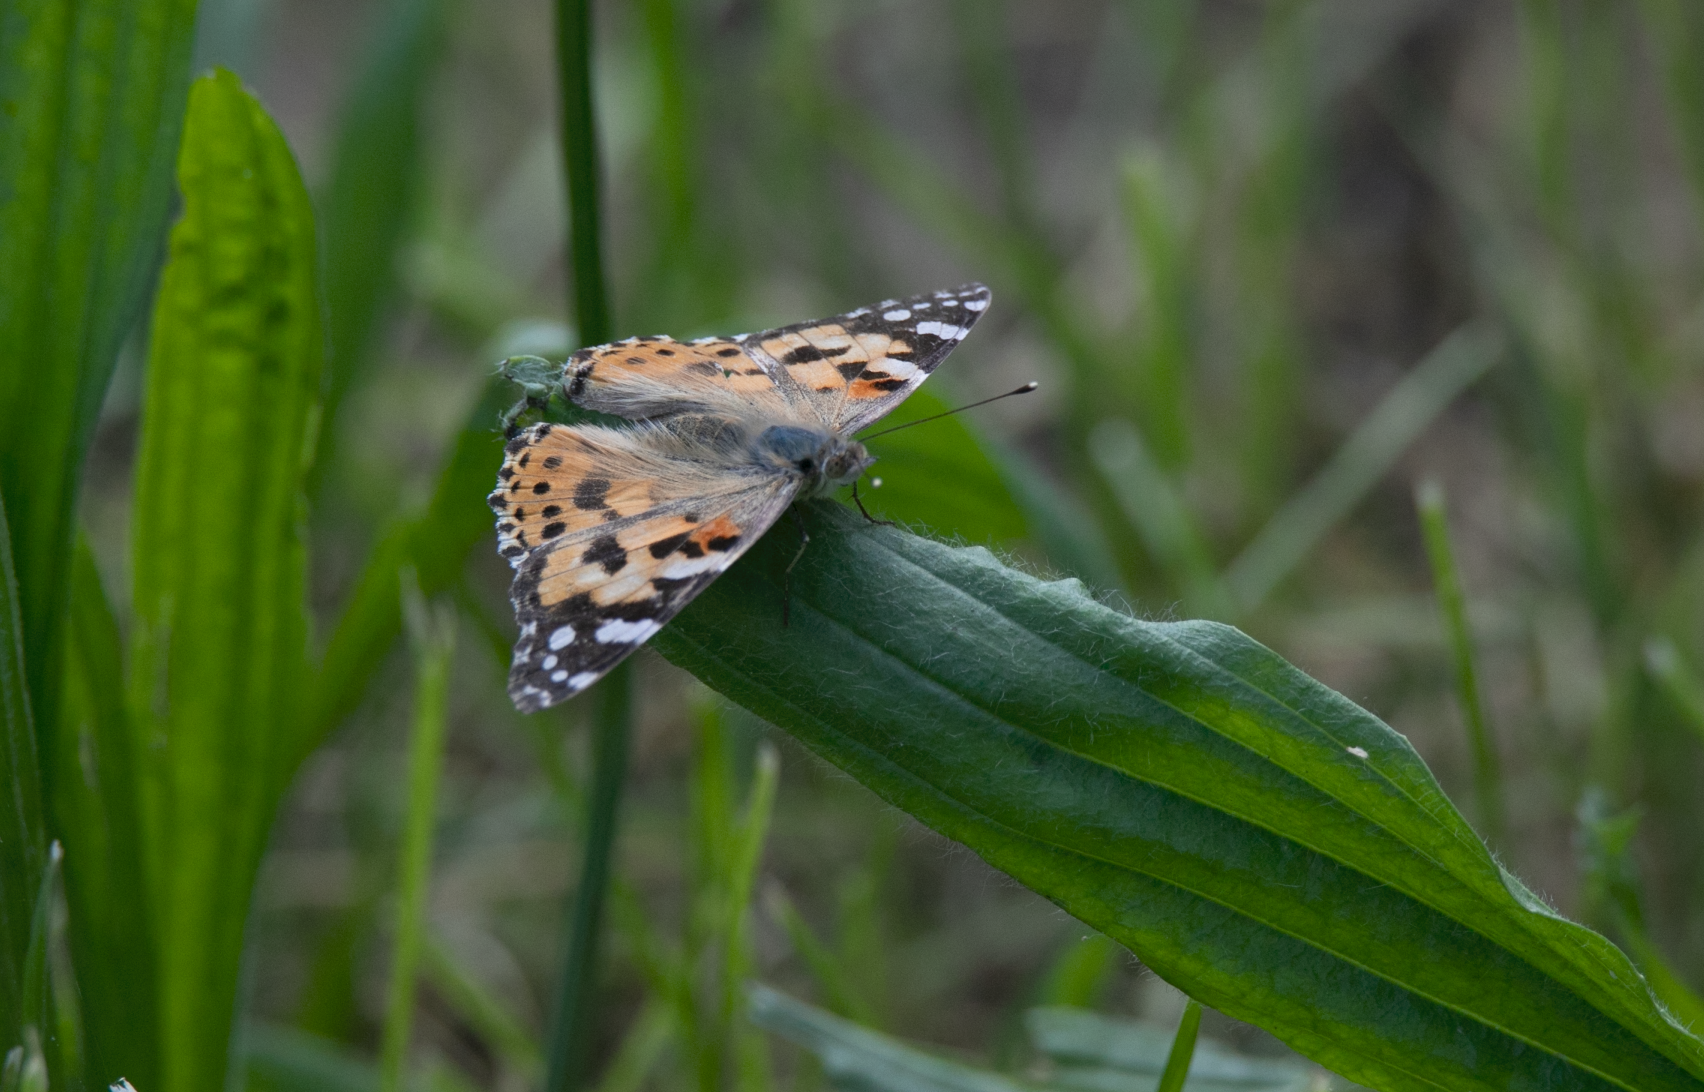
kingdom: Animalia
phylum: Arthropoda
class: Insecta
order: Lepidoptera
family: Nymphalidae
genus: Vanessa
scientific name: Vanessa cardui
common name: Painted lady
